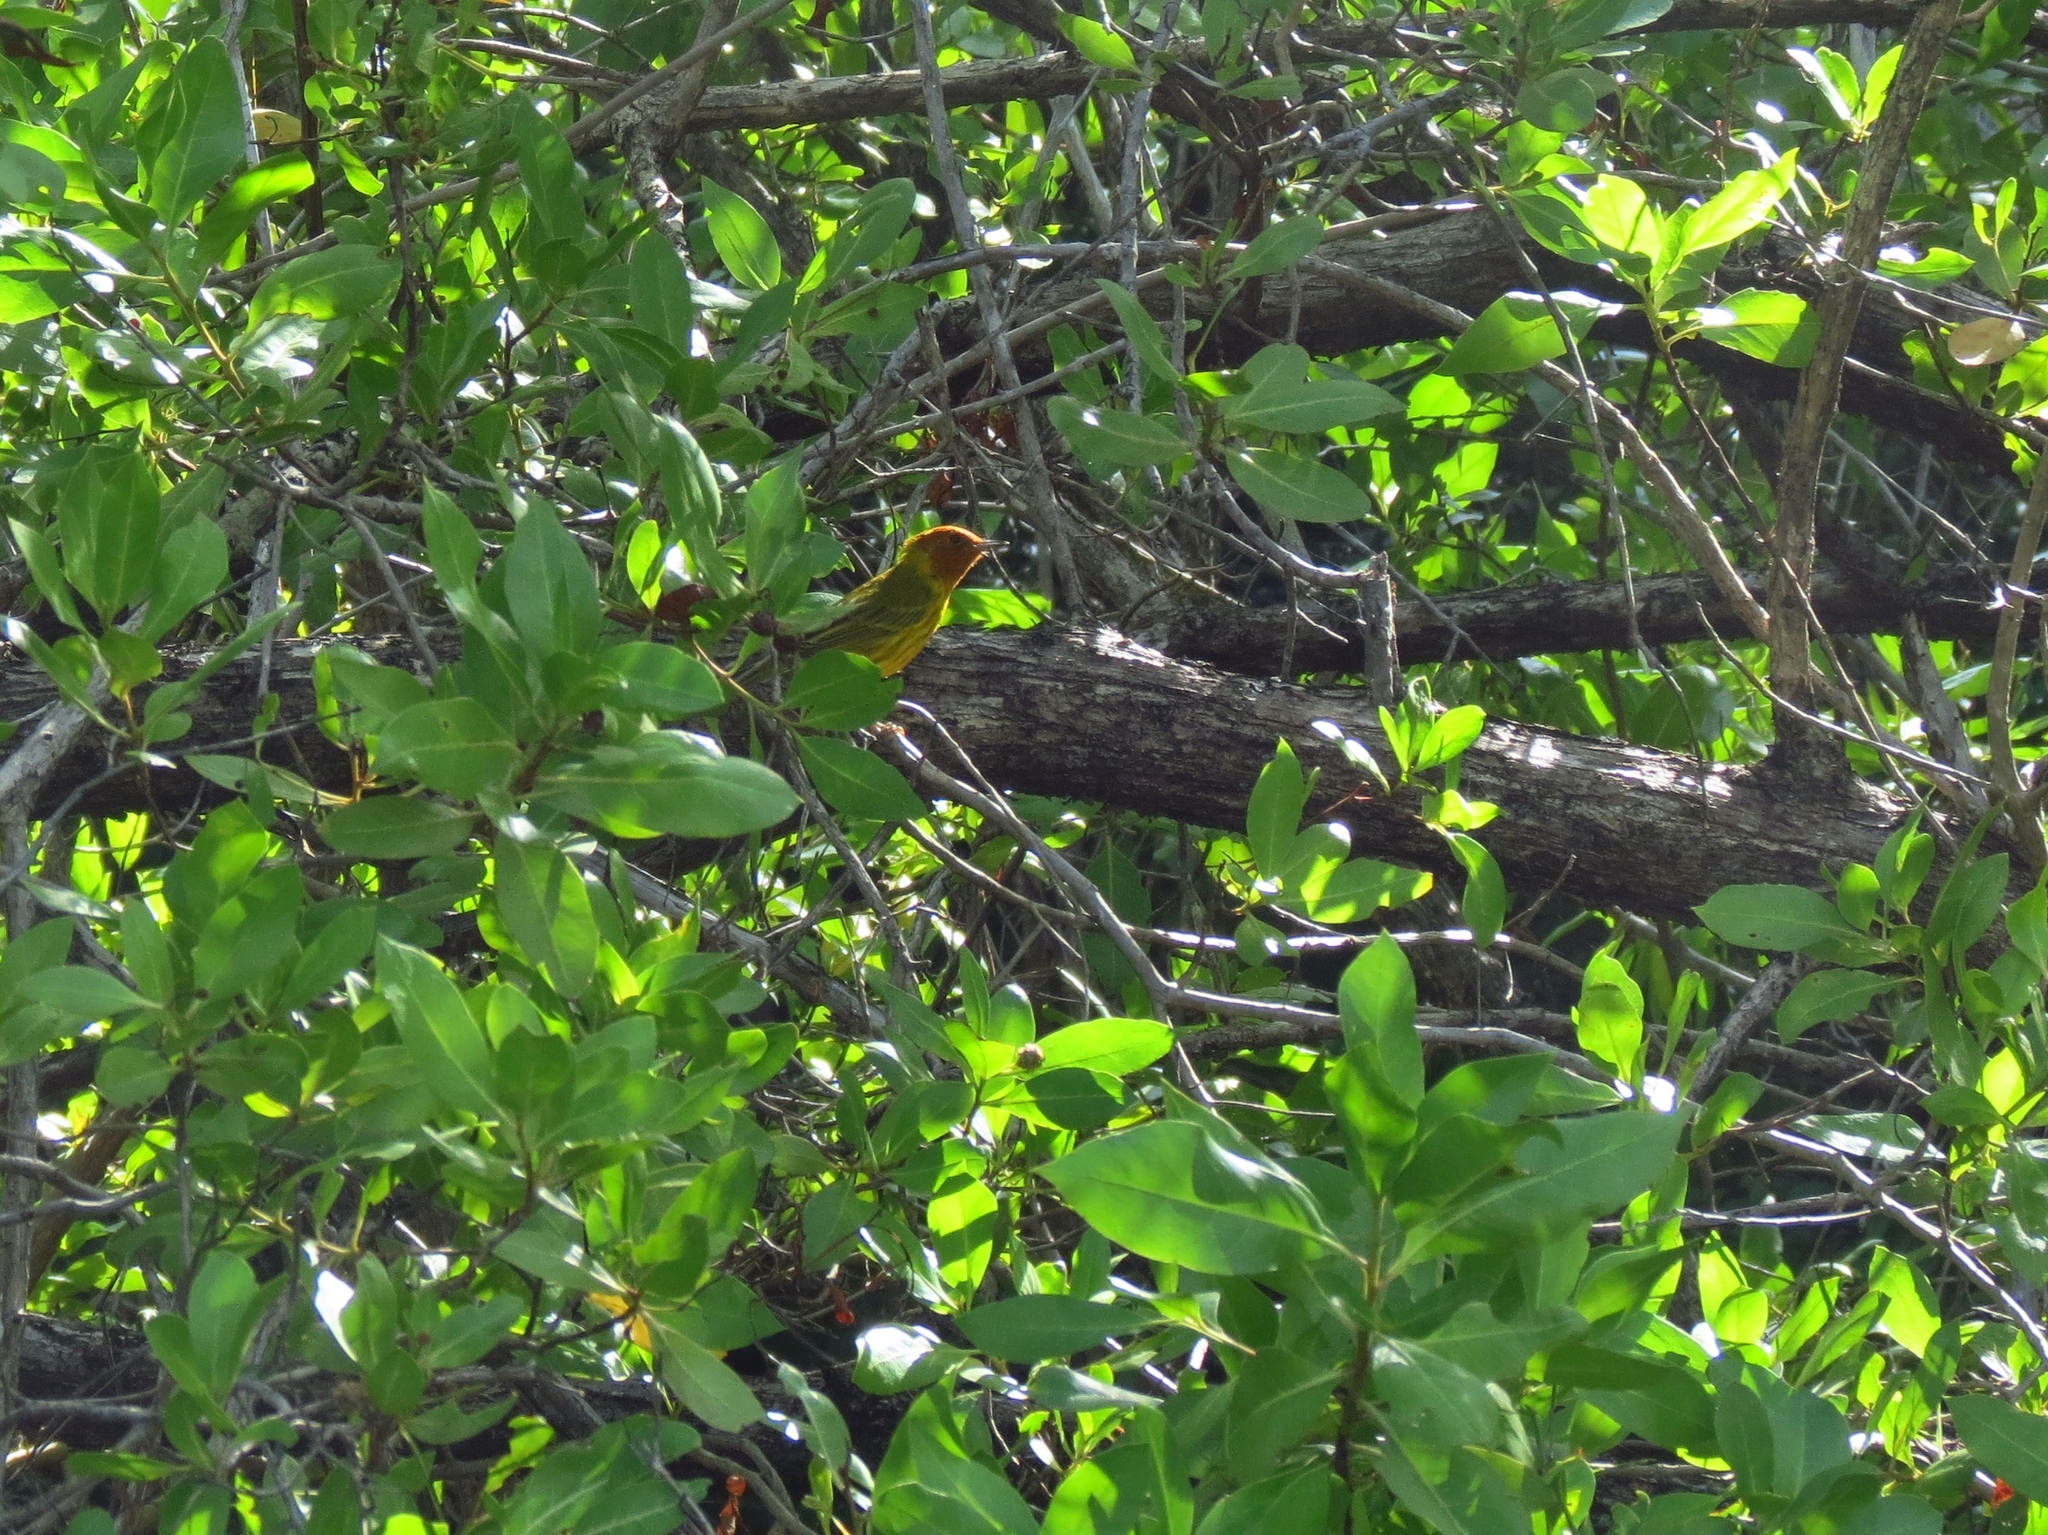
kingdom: Animalia
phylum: Chordata
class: Aves
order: Passeriformes
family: Parulidae
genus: Setophaga
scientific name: Setophaga petechia
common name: Yellow warbler
